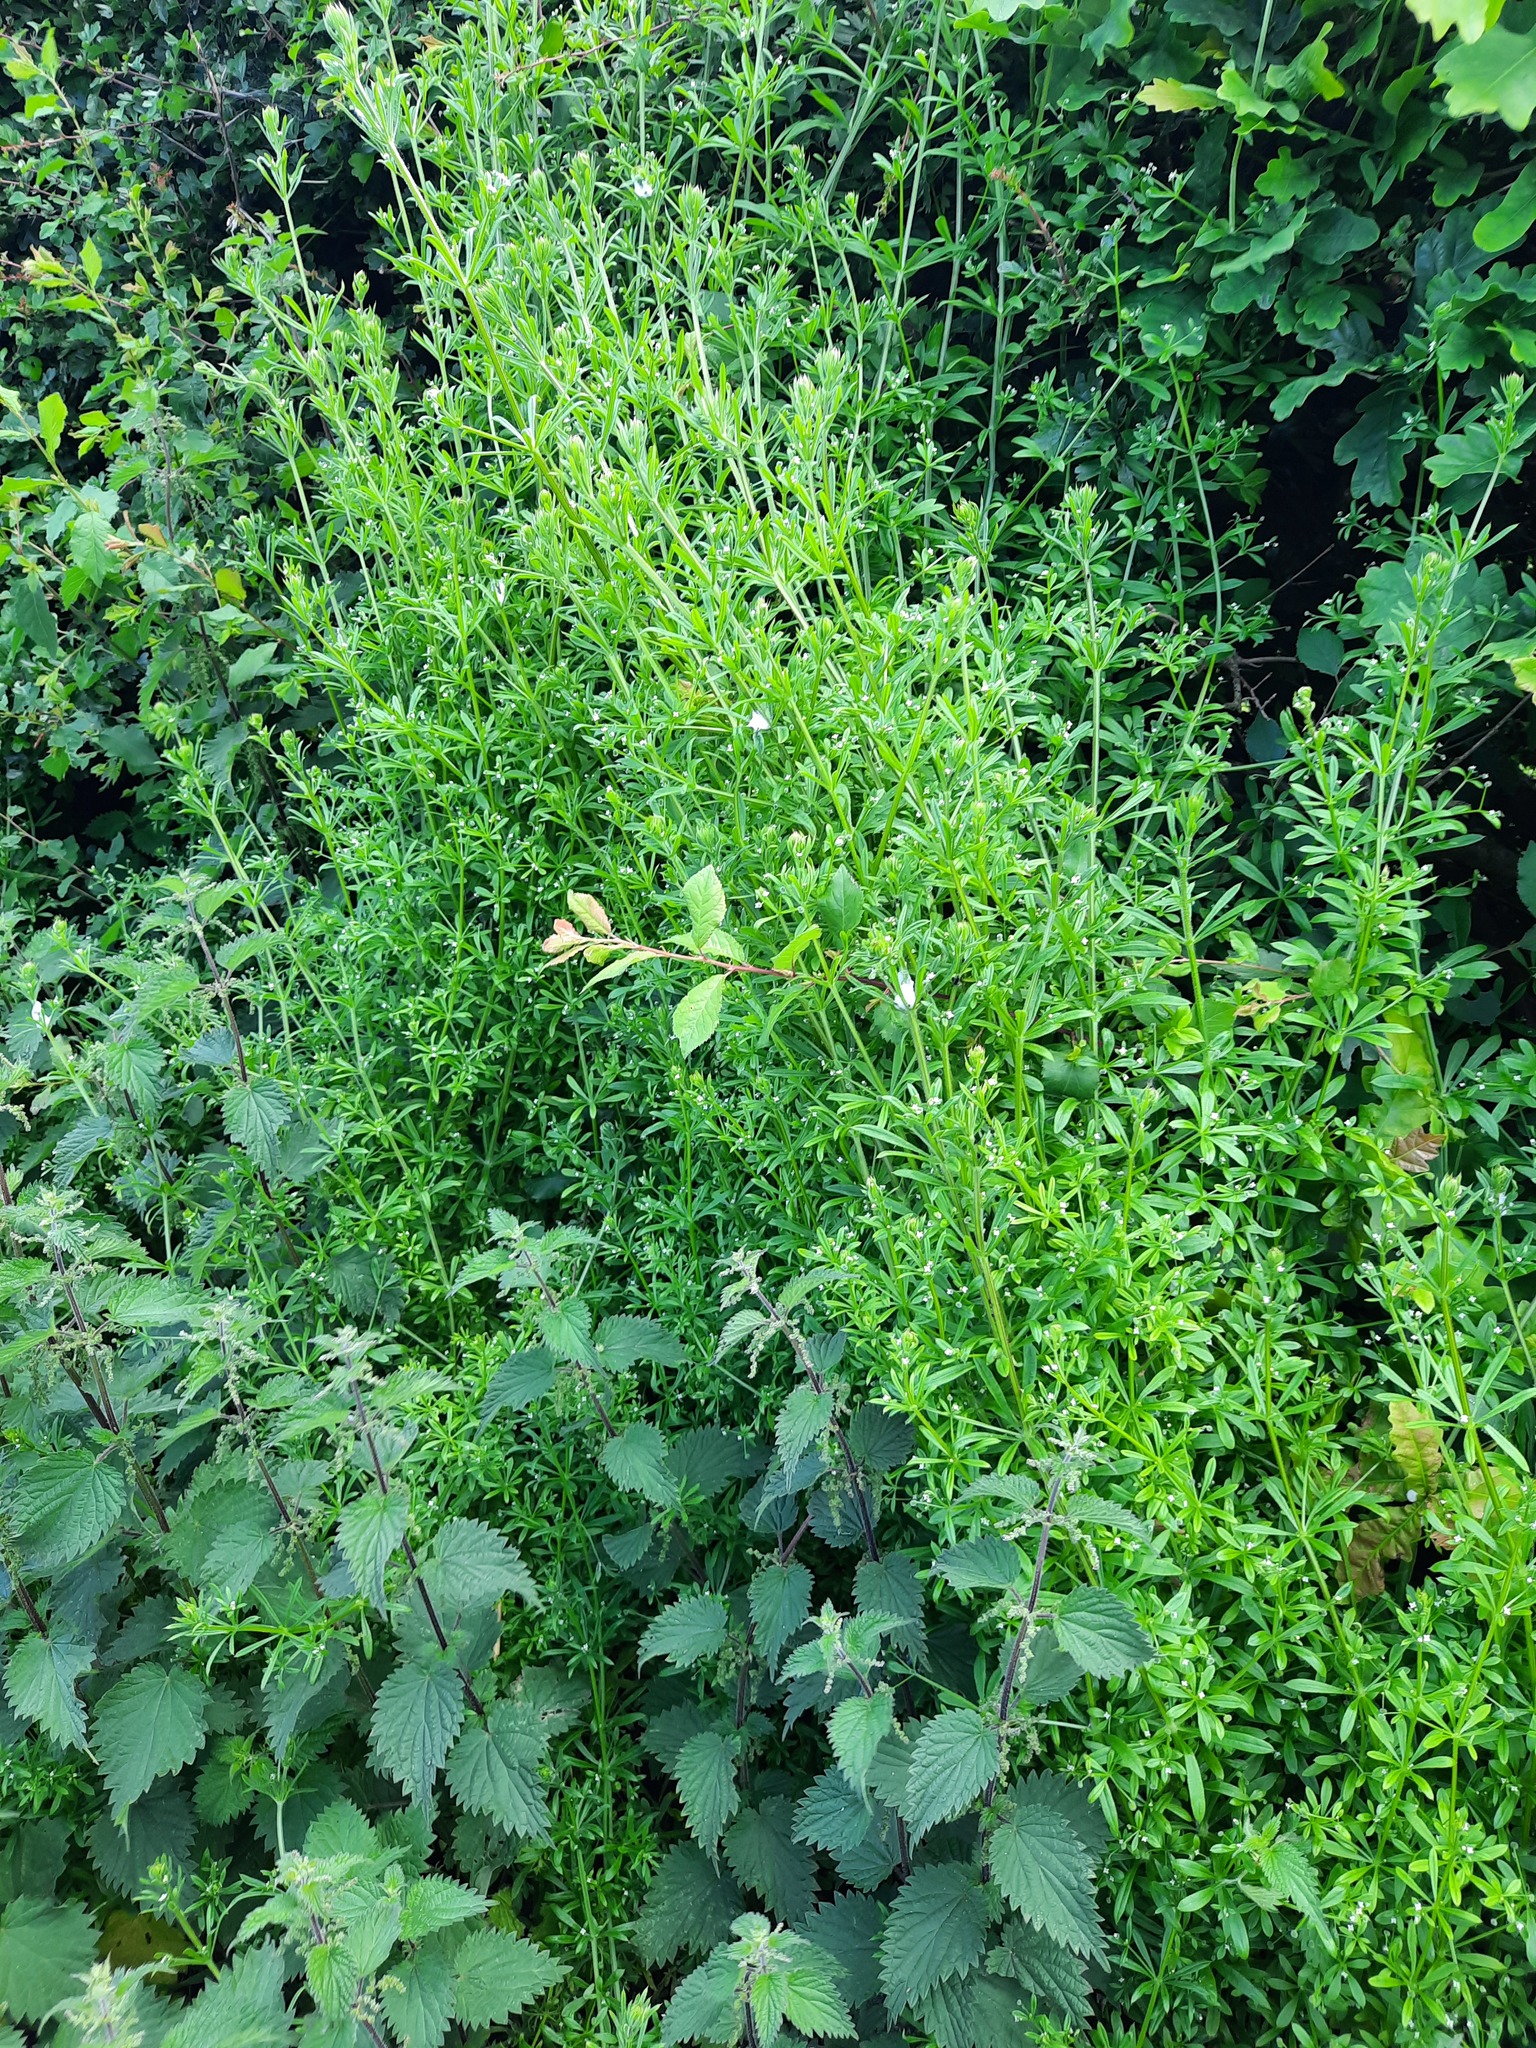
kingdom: Plantae
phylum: Tracheophyta
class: Magnoliopsida
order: Gentianales
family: Rubiaceae
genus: Galium
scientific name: Galium aparine
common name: Cleavers
